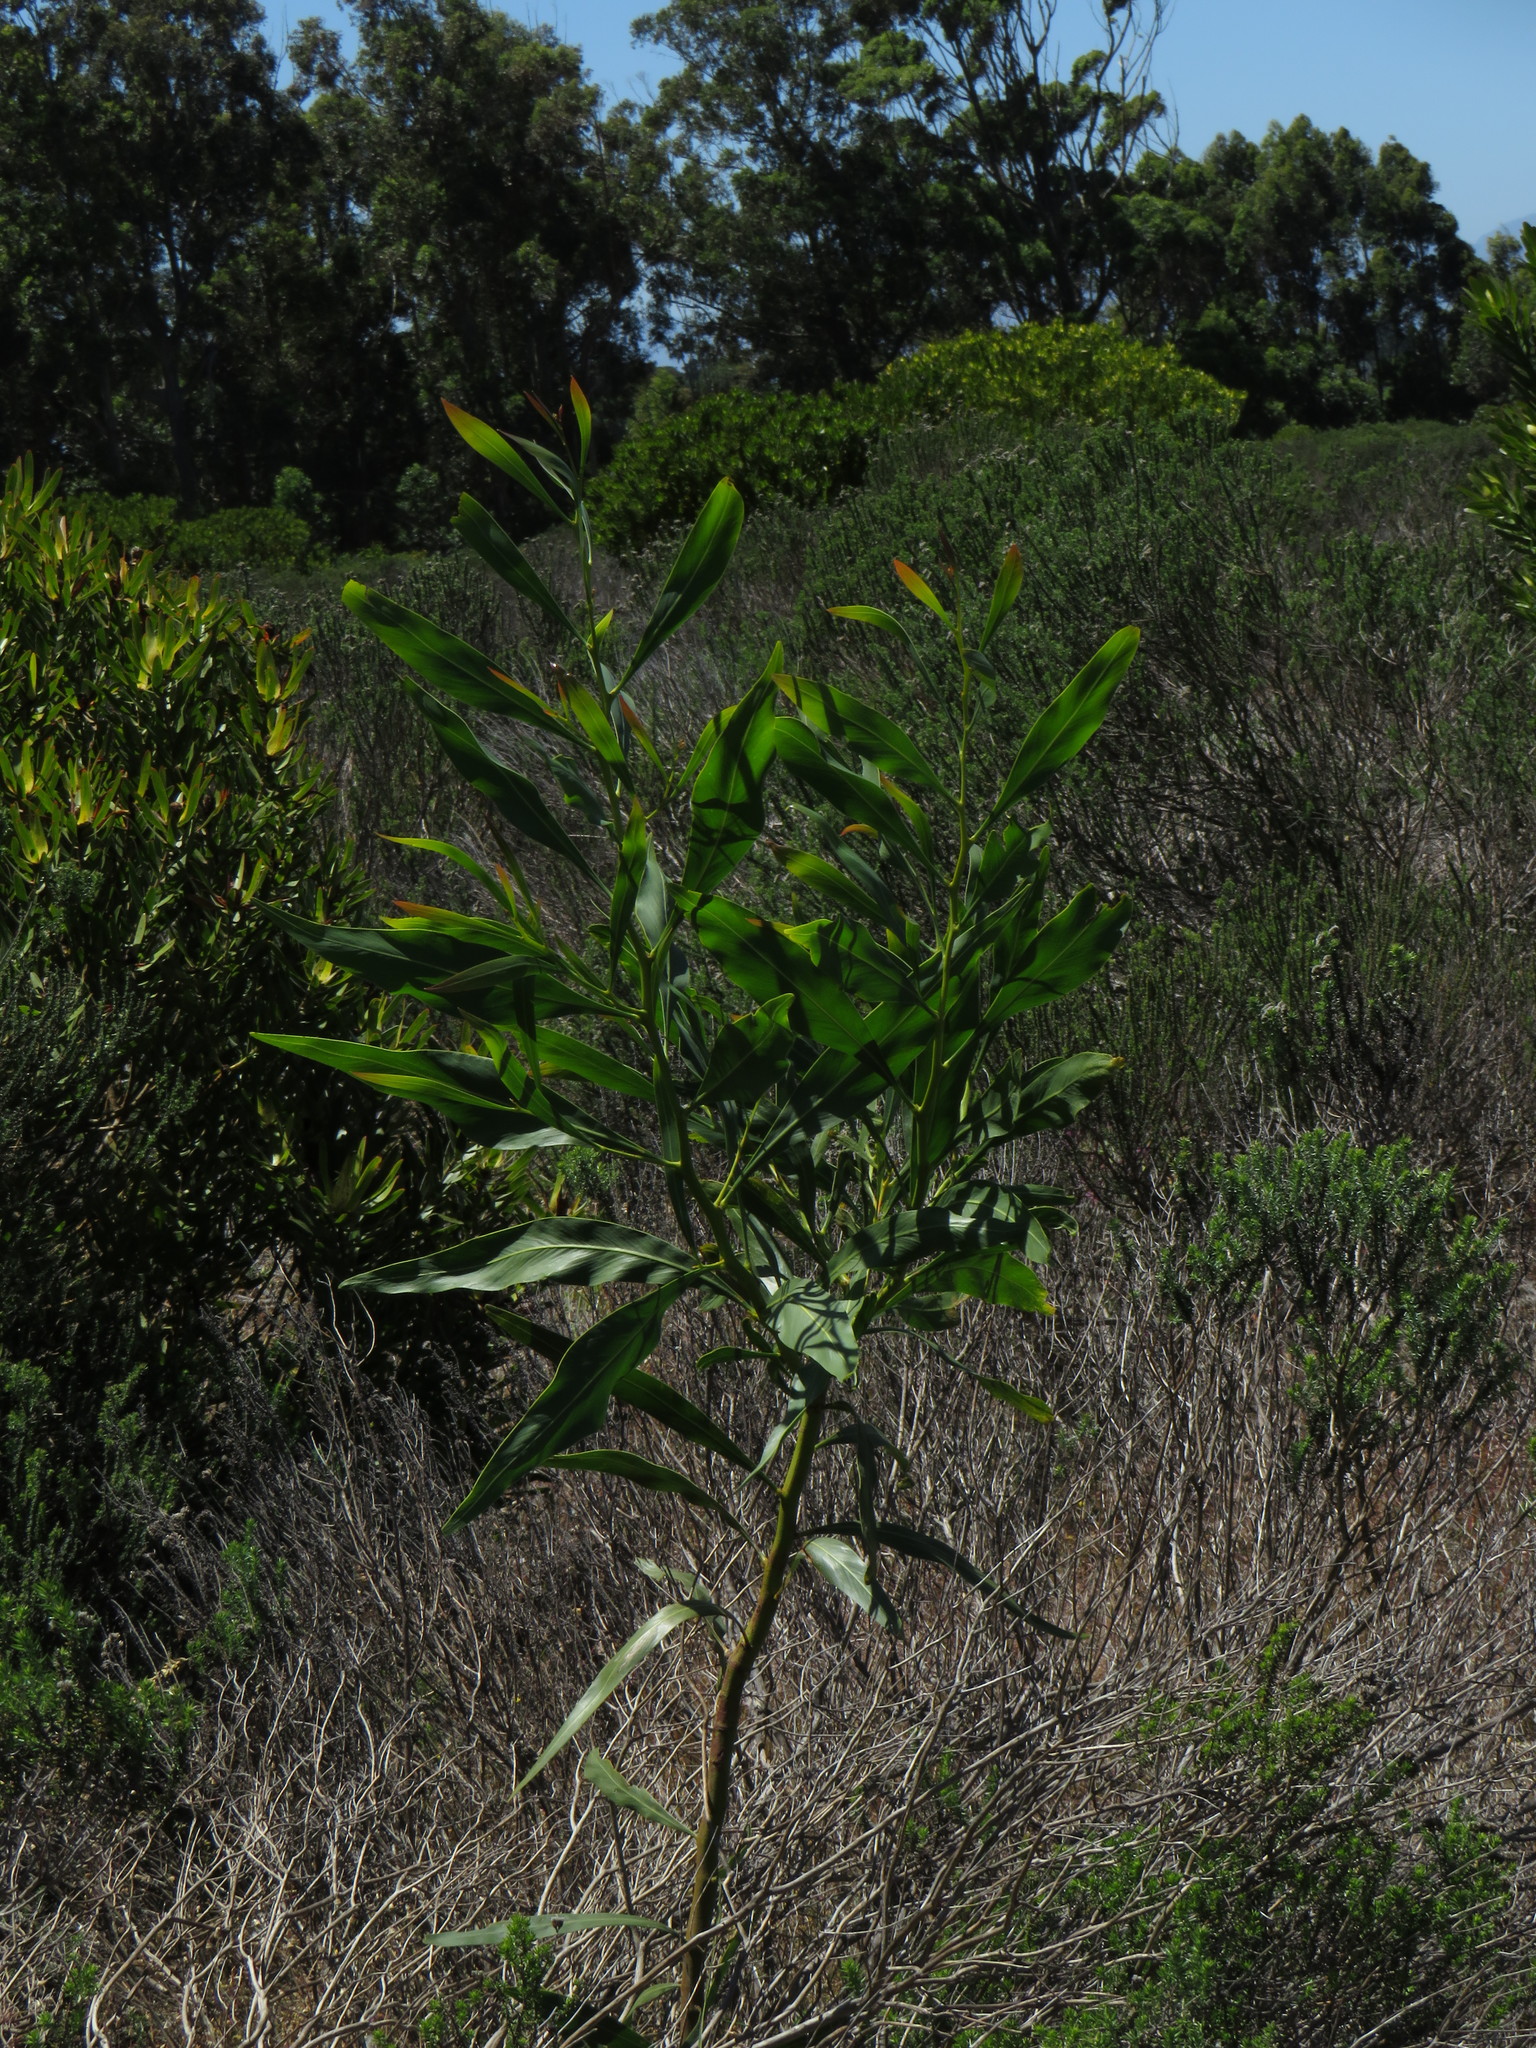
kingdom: Plantae
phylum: Tracheophyta
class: Magnoliopsida
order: Fabales
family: Fabaceae
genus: Acacia
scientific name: Acacia saligna
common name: Orange wattle
